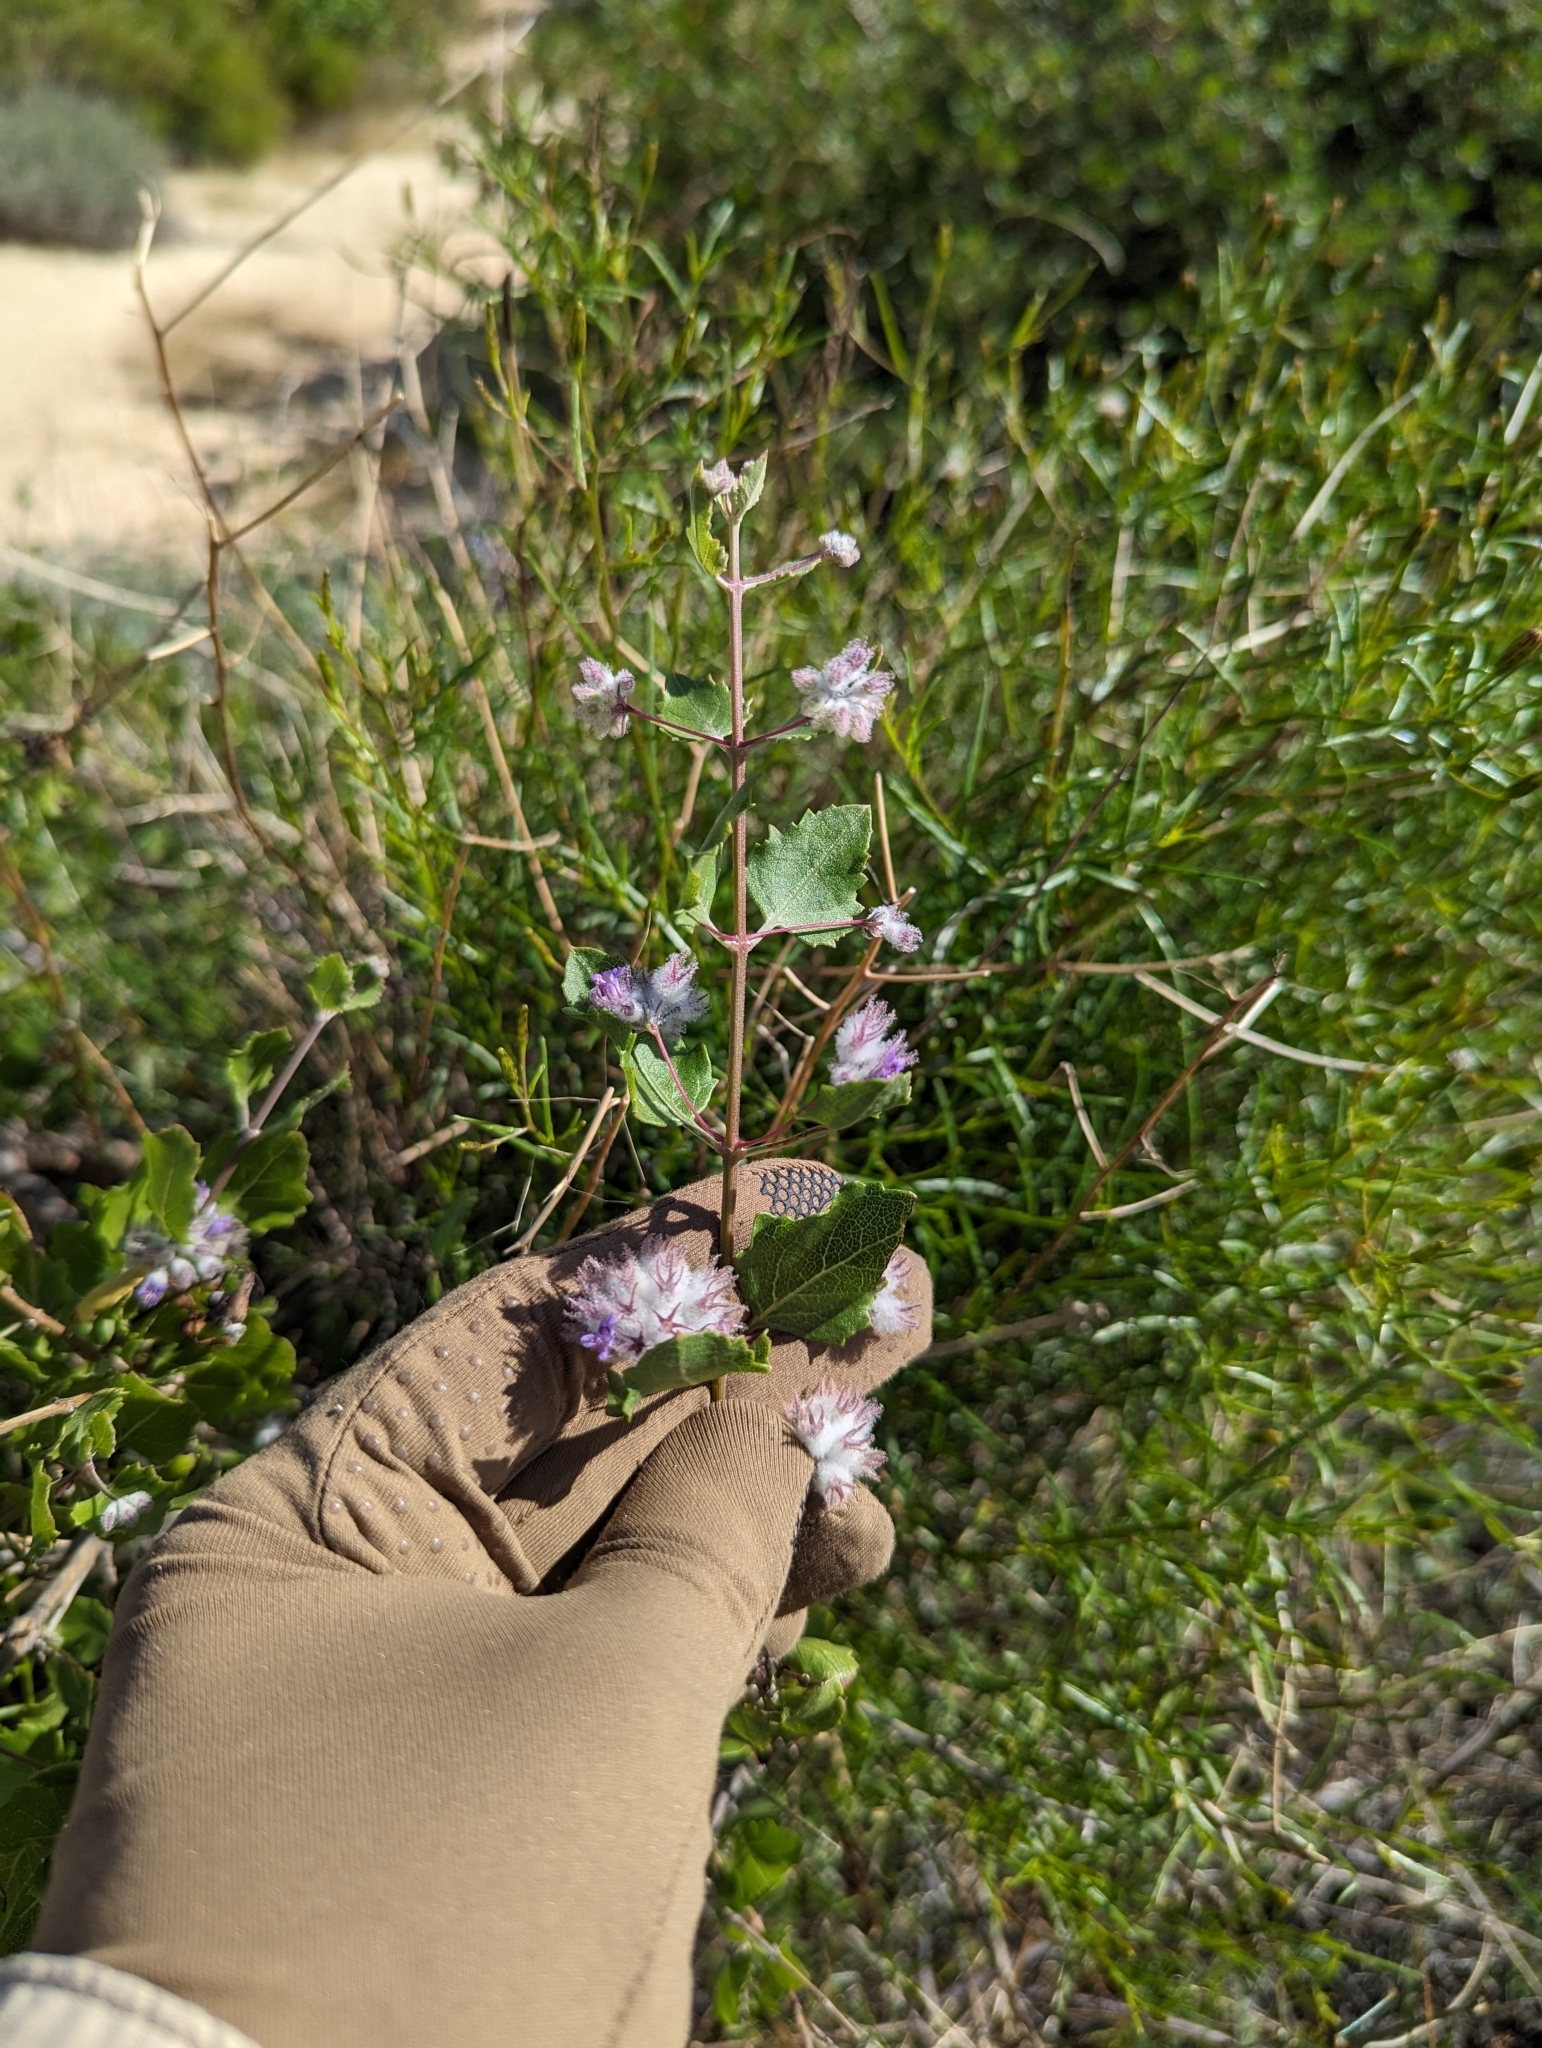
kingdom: Plantae
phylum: Tracheophyta
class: Magnoliopsida
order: Lamiales
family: Lamiaceae
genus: Condea
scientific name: Condea laniflora
